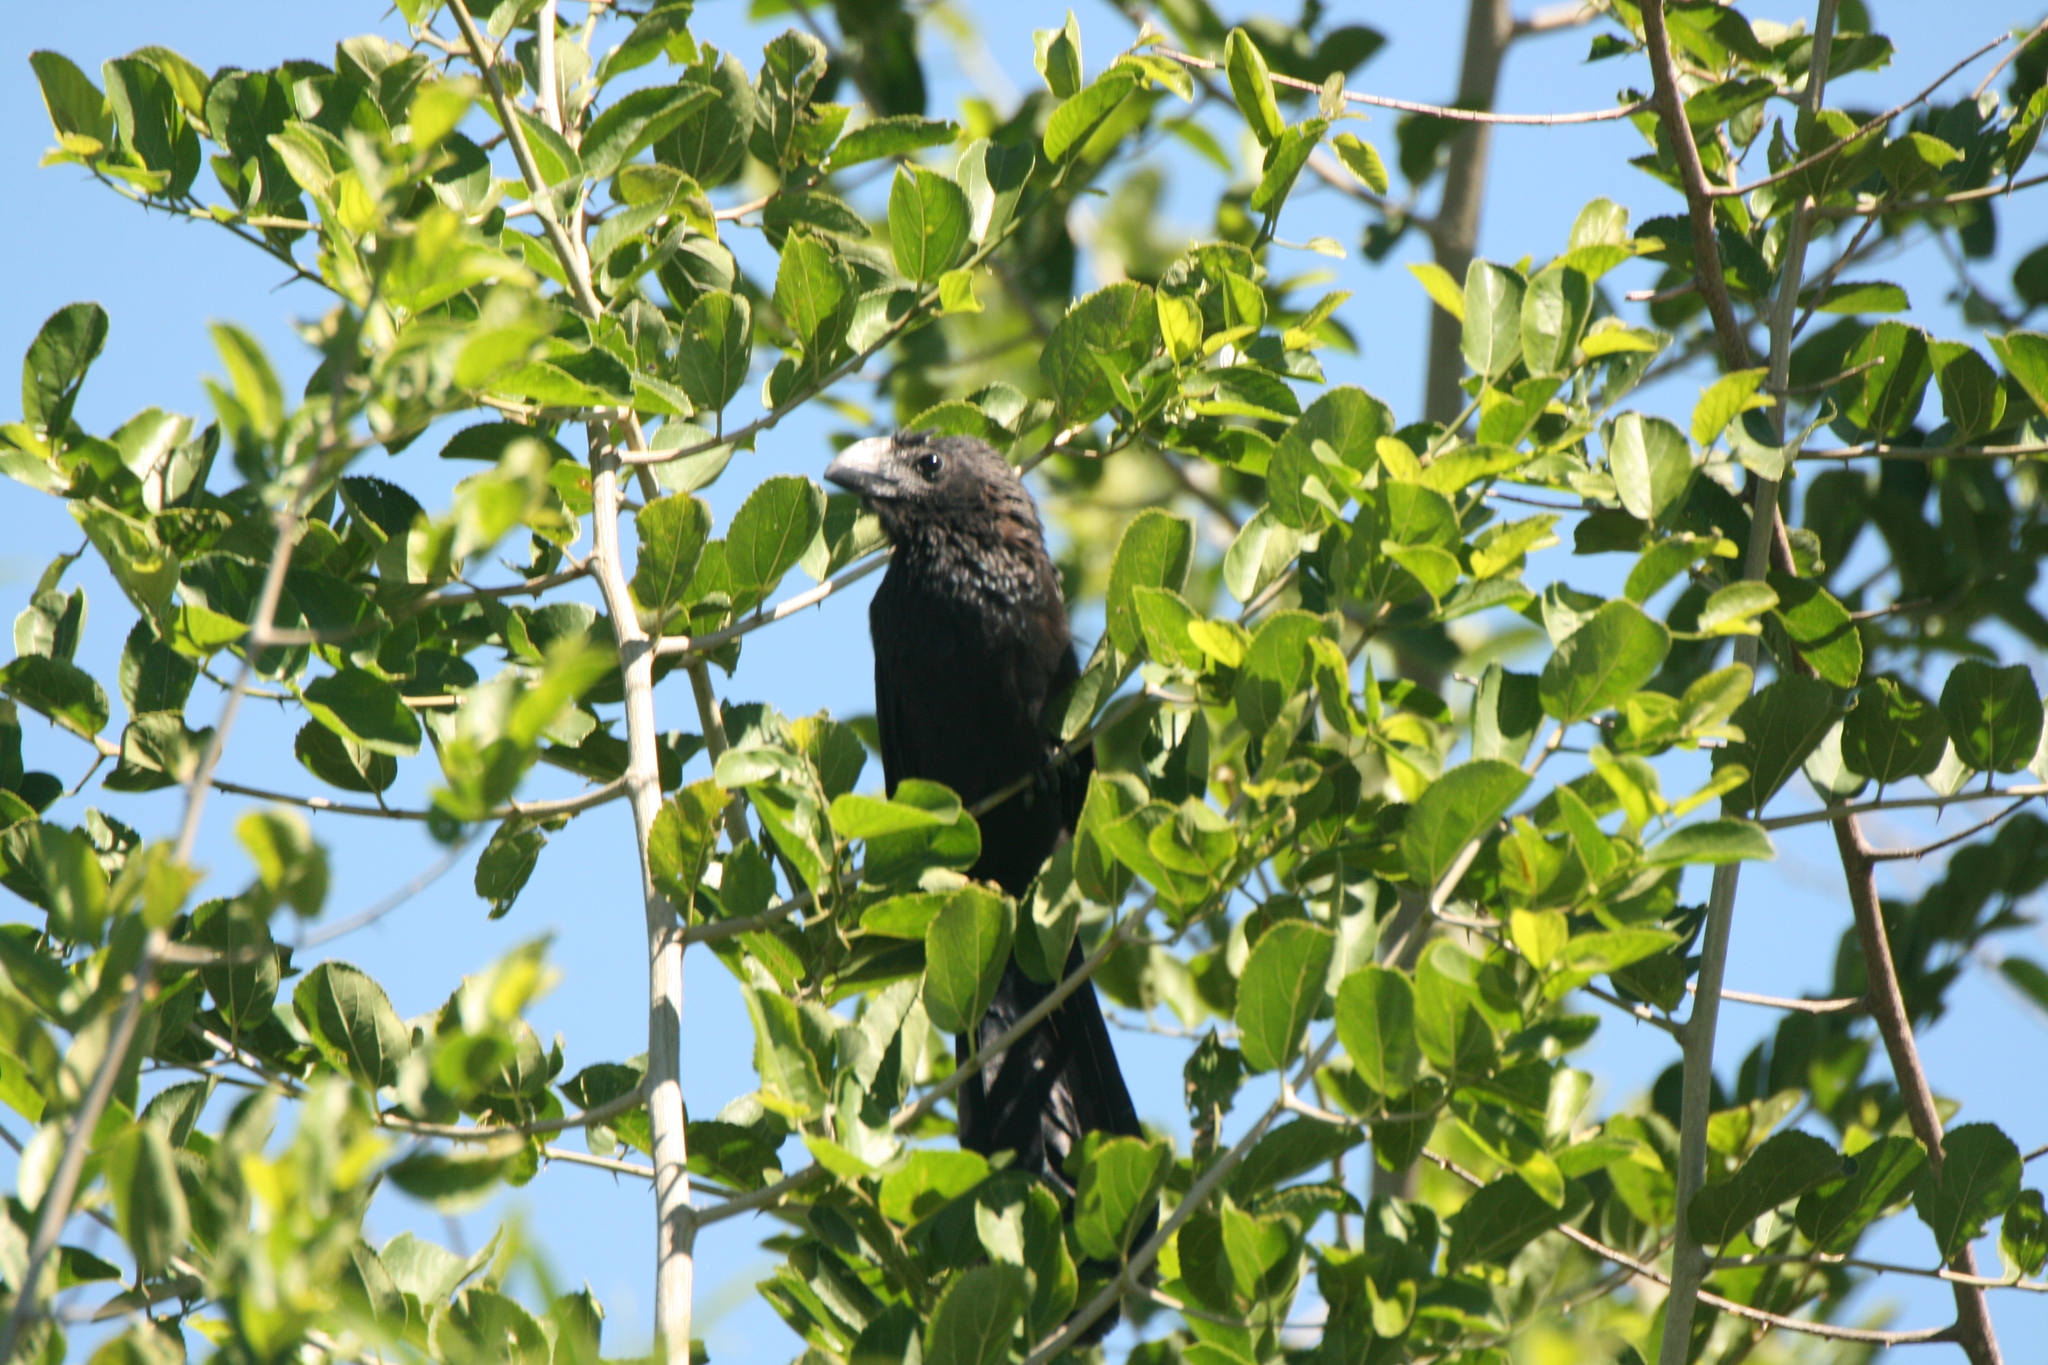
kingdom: Animalia
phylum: Chordata
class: Aves
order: Cuculiformes
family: Cuculidae
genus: Crotophaga
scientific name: Crotophaga ani
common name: Smooth-billed ani
